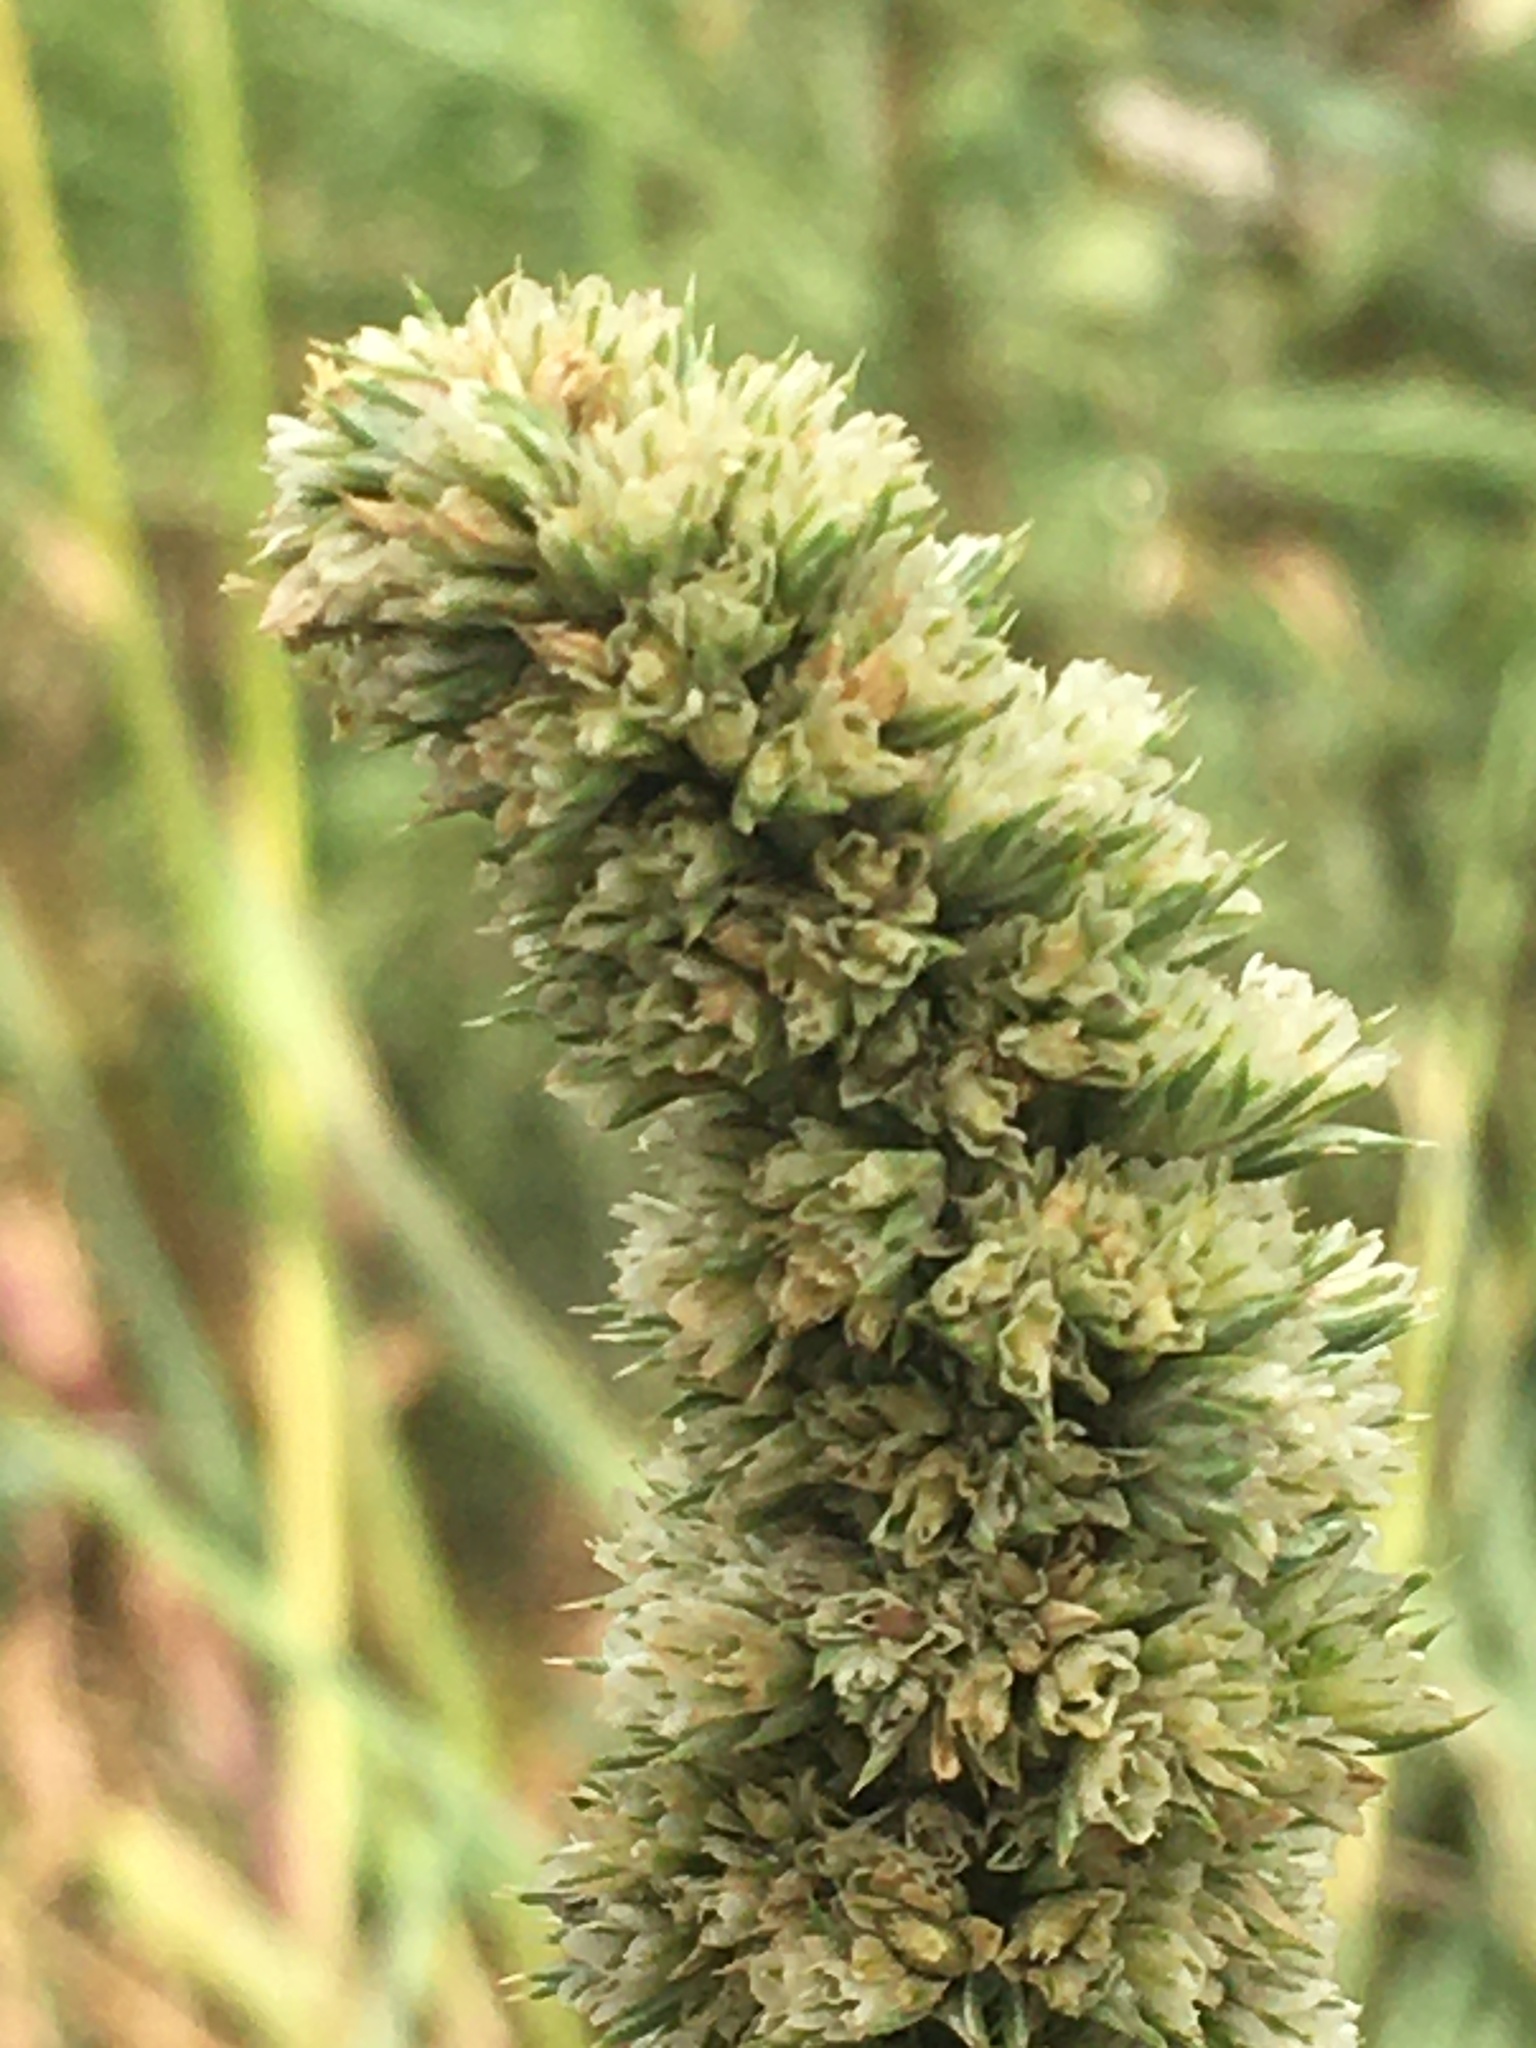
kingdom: Plantae
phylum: Tracheophyta
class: Magnoliopsida
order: Caryophyllales
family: Amaranthaceae
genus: Amaranthus
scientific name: Amaranthus retroflexus
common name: Redroot amaranth
